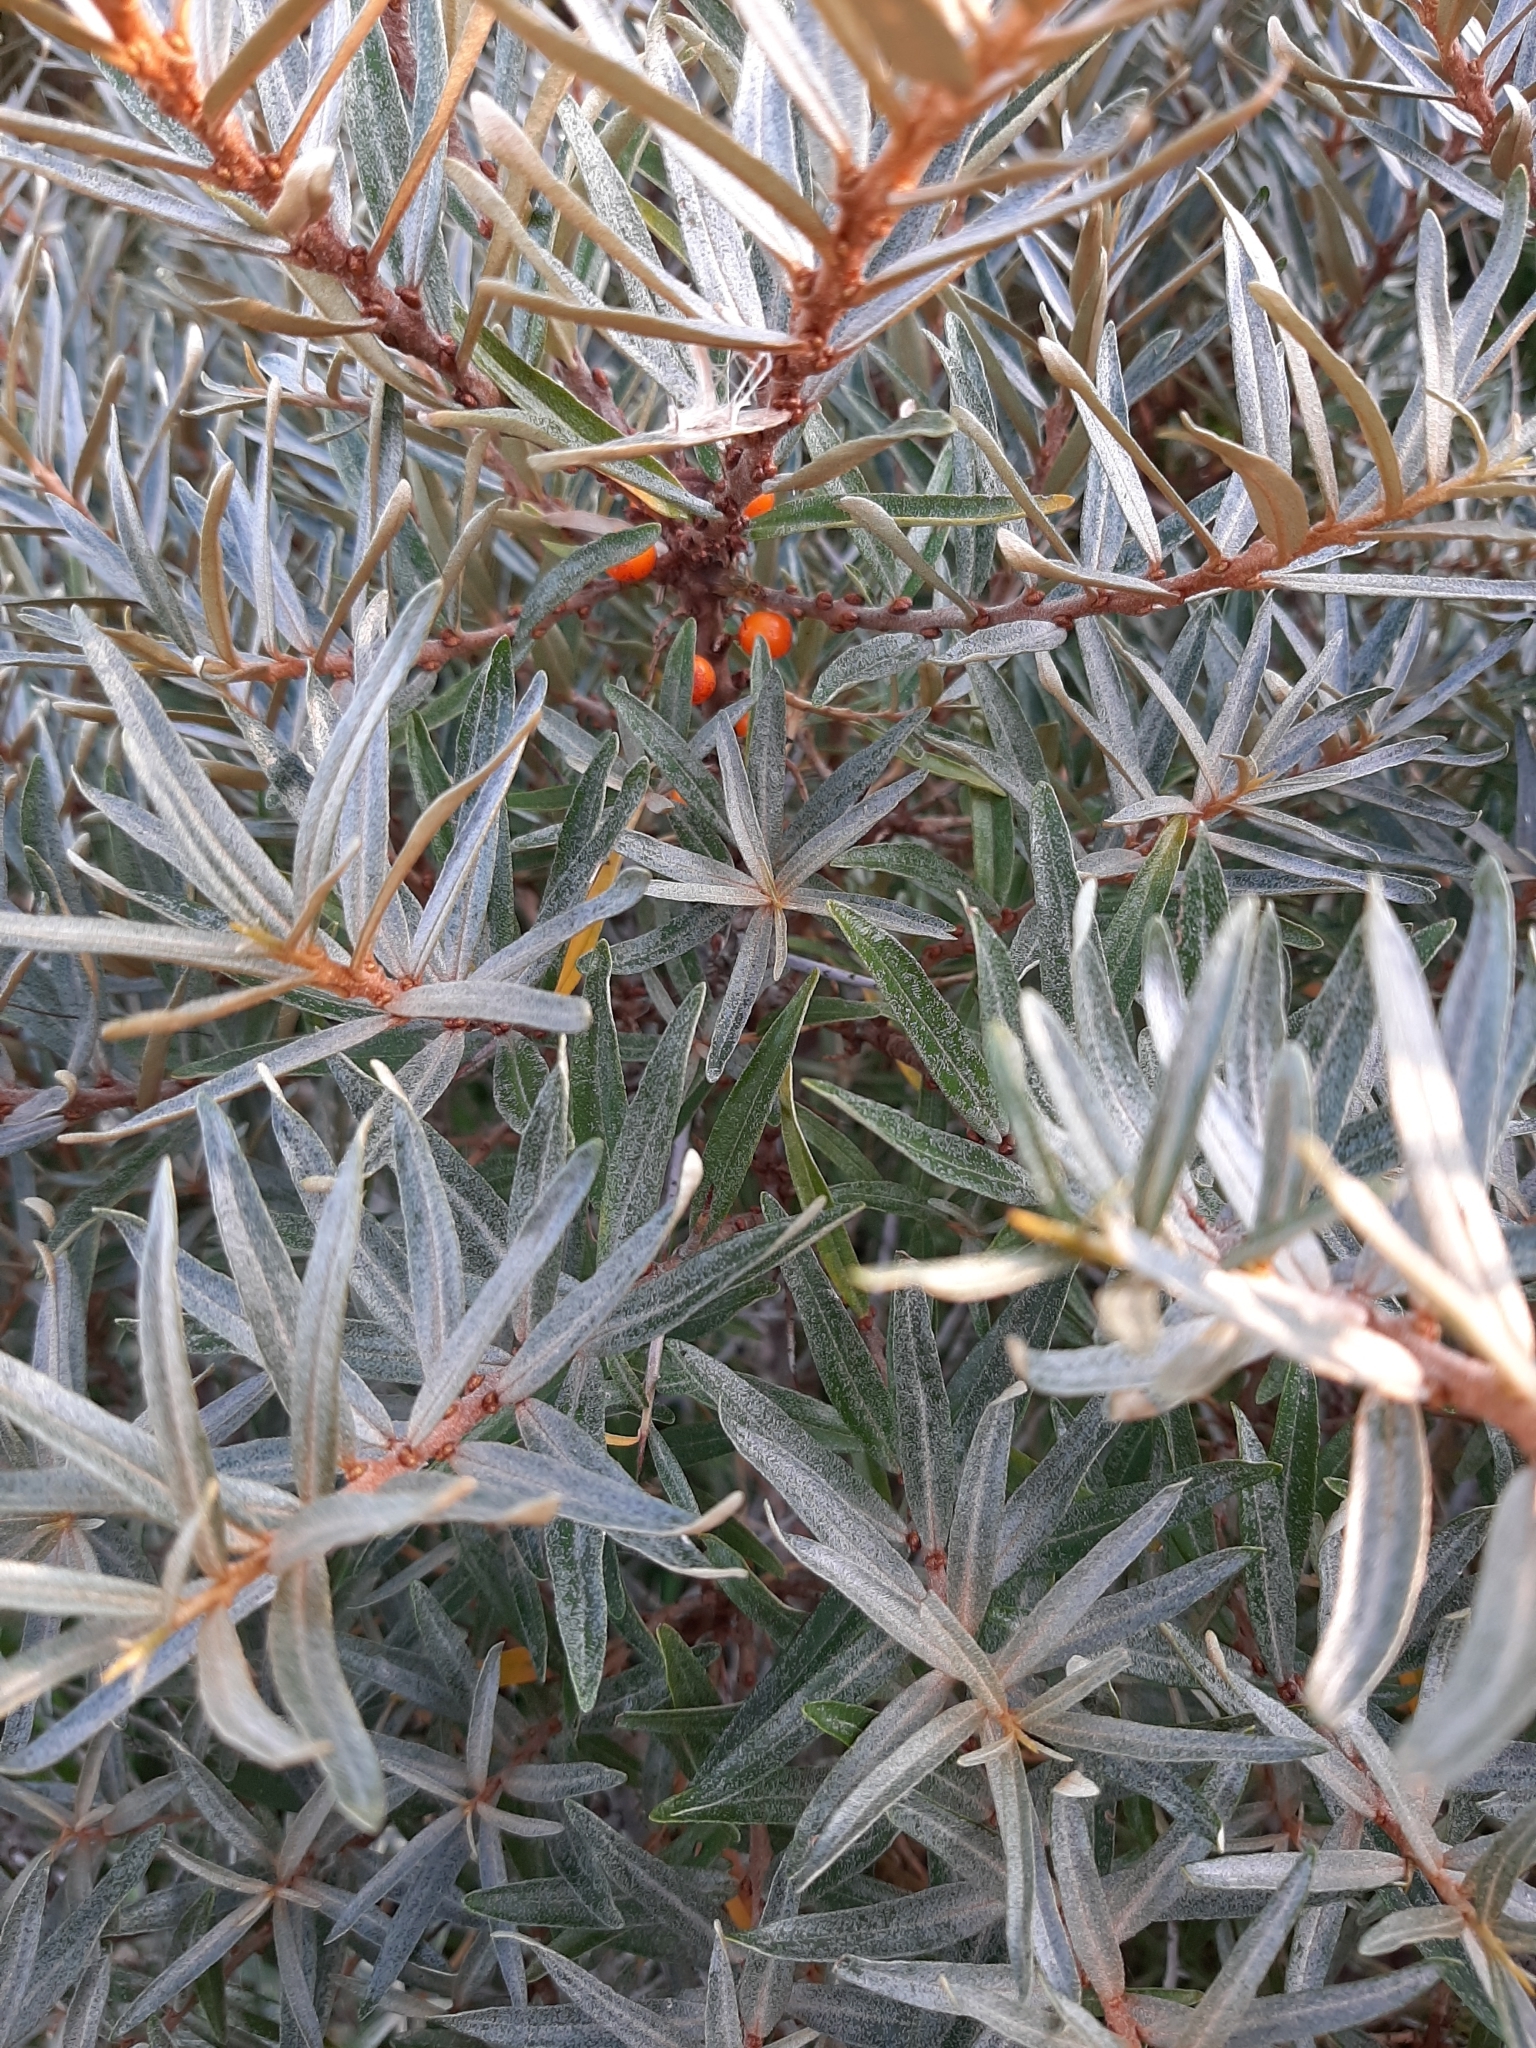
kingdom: Plantae
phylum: Tracheophyta
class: Magnoliopsida
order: Rosales
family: Elaeagnaceae
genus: Hippophae
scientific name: Hippophae rhamnoides
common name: Sea-buckthorn
